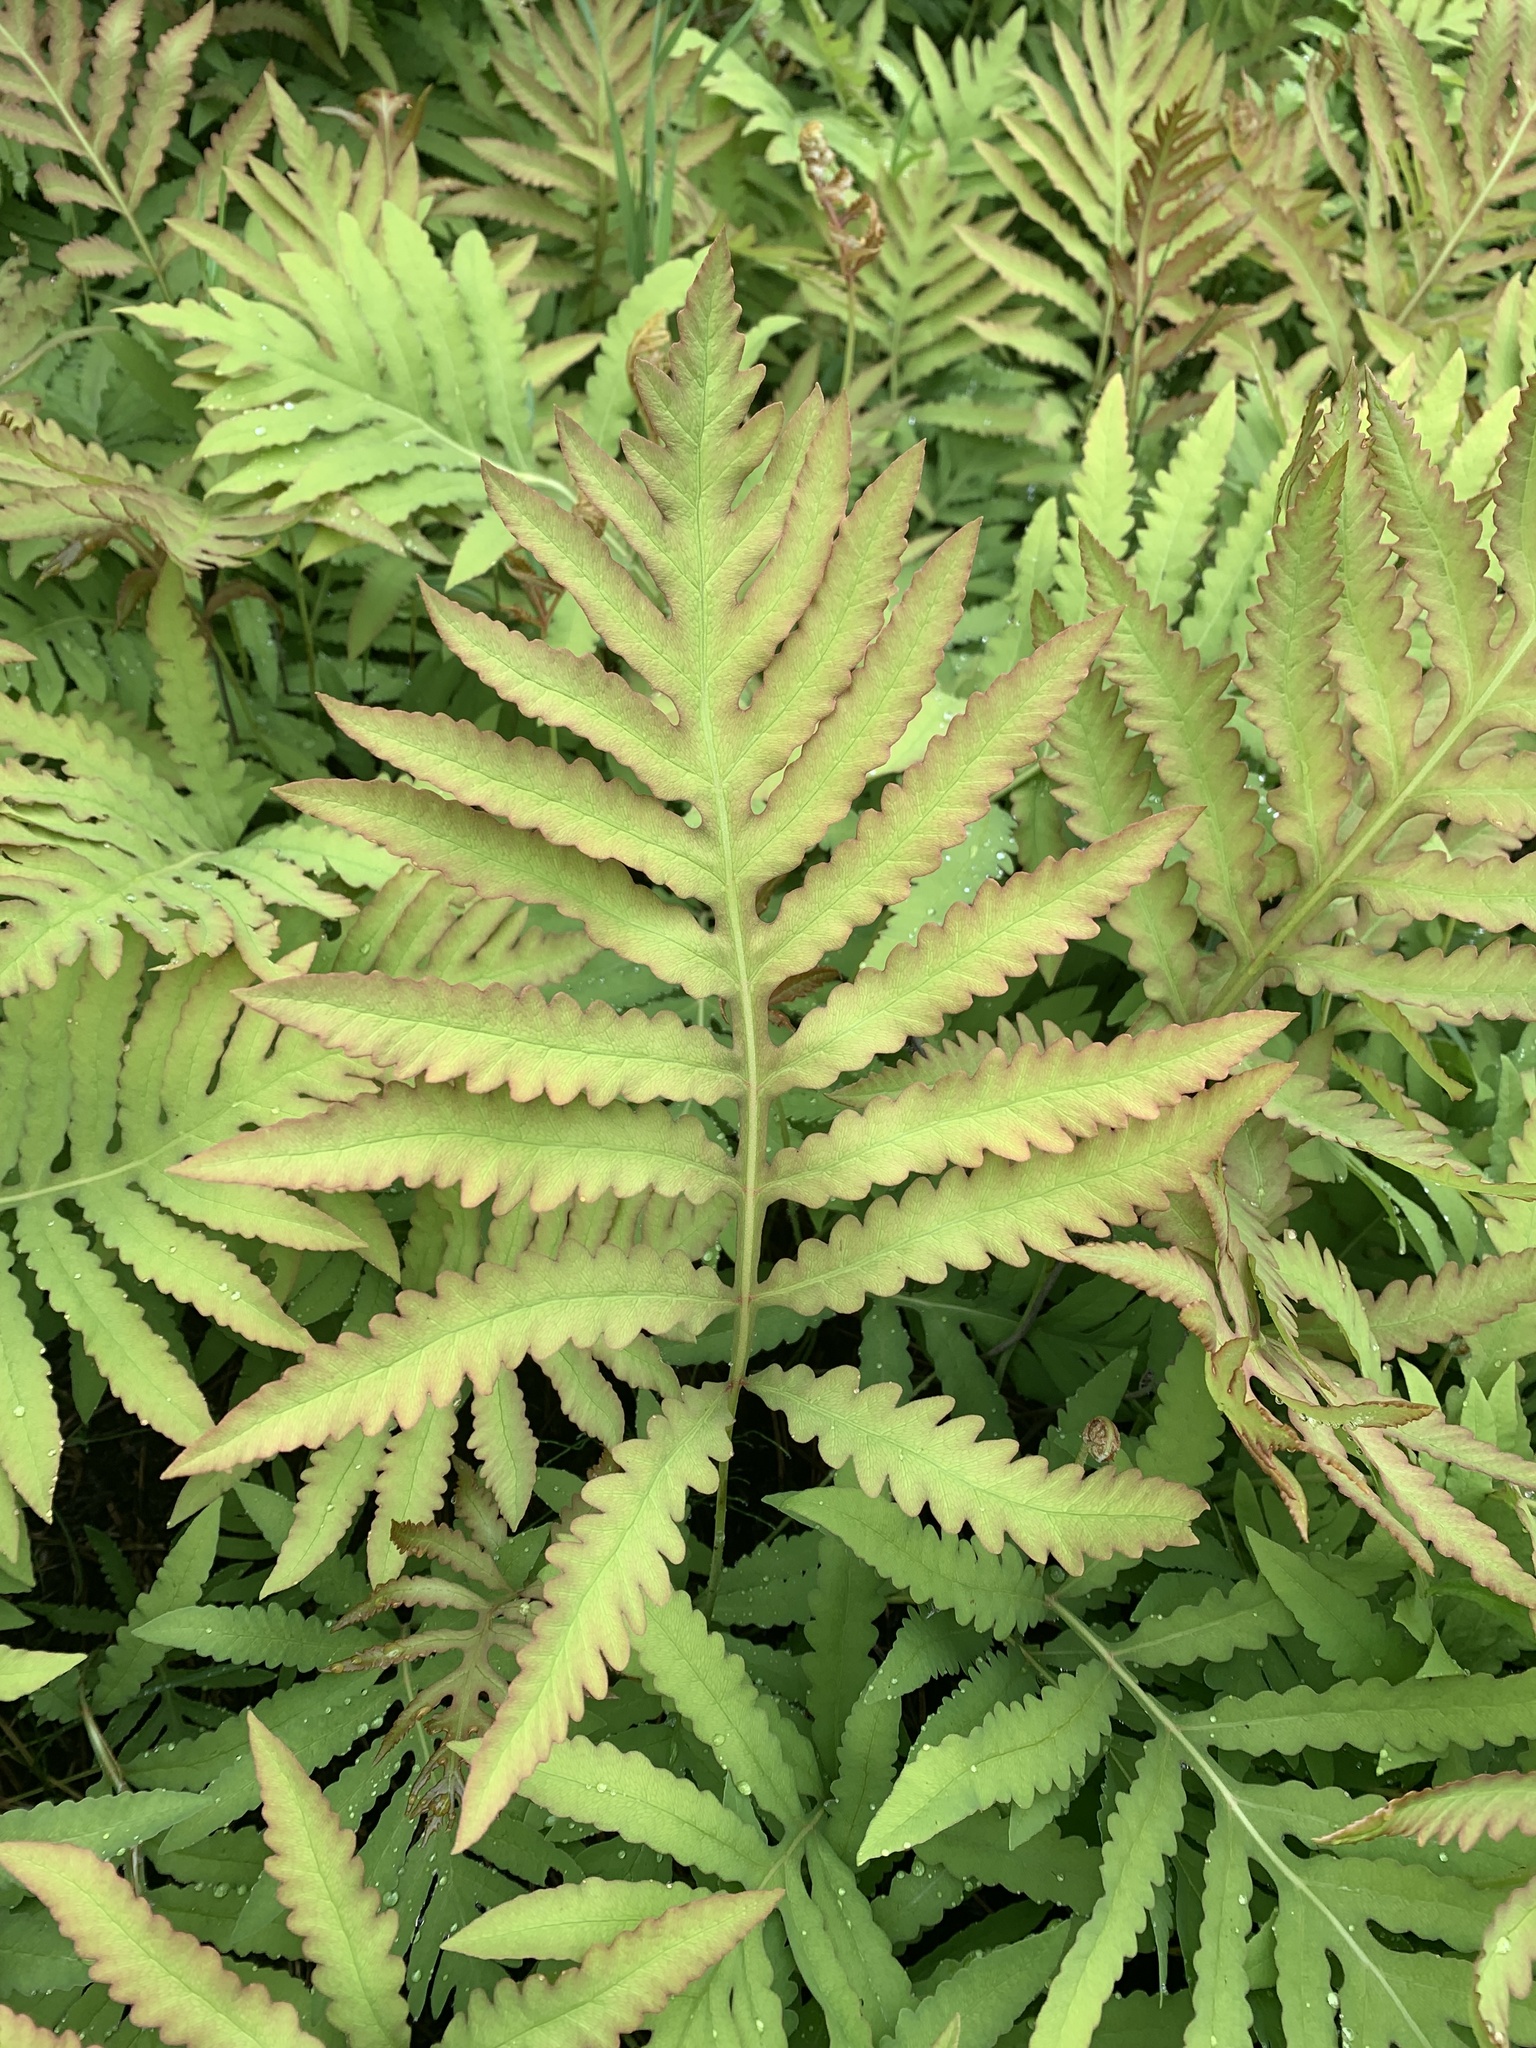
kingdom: Plantae
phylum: Tracheophyta
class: Polypodiopsida
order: Polypodiales
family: Onocleaceae
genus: Onoclea
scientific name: Onoclea sensibilis
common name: Sensitive fern
